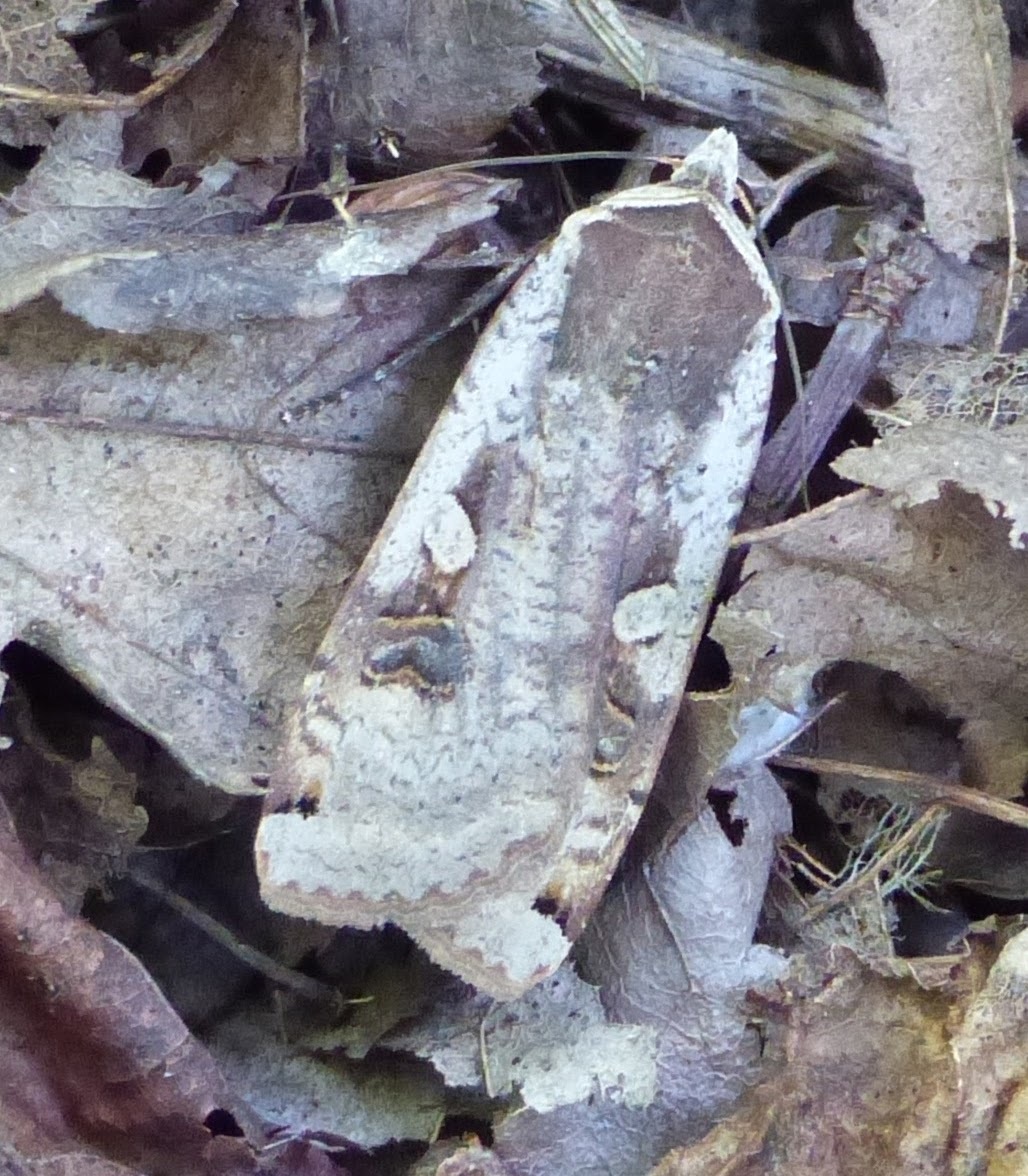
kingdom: Animalia
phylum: Arthropoda
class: Insecta
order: Lepidoptera
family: Noctuidae
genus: Noctua
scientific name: Noctua pronuba
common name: Large yellow underwing
